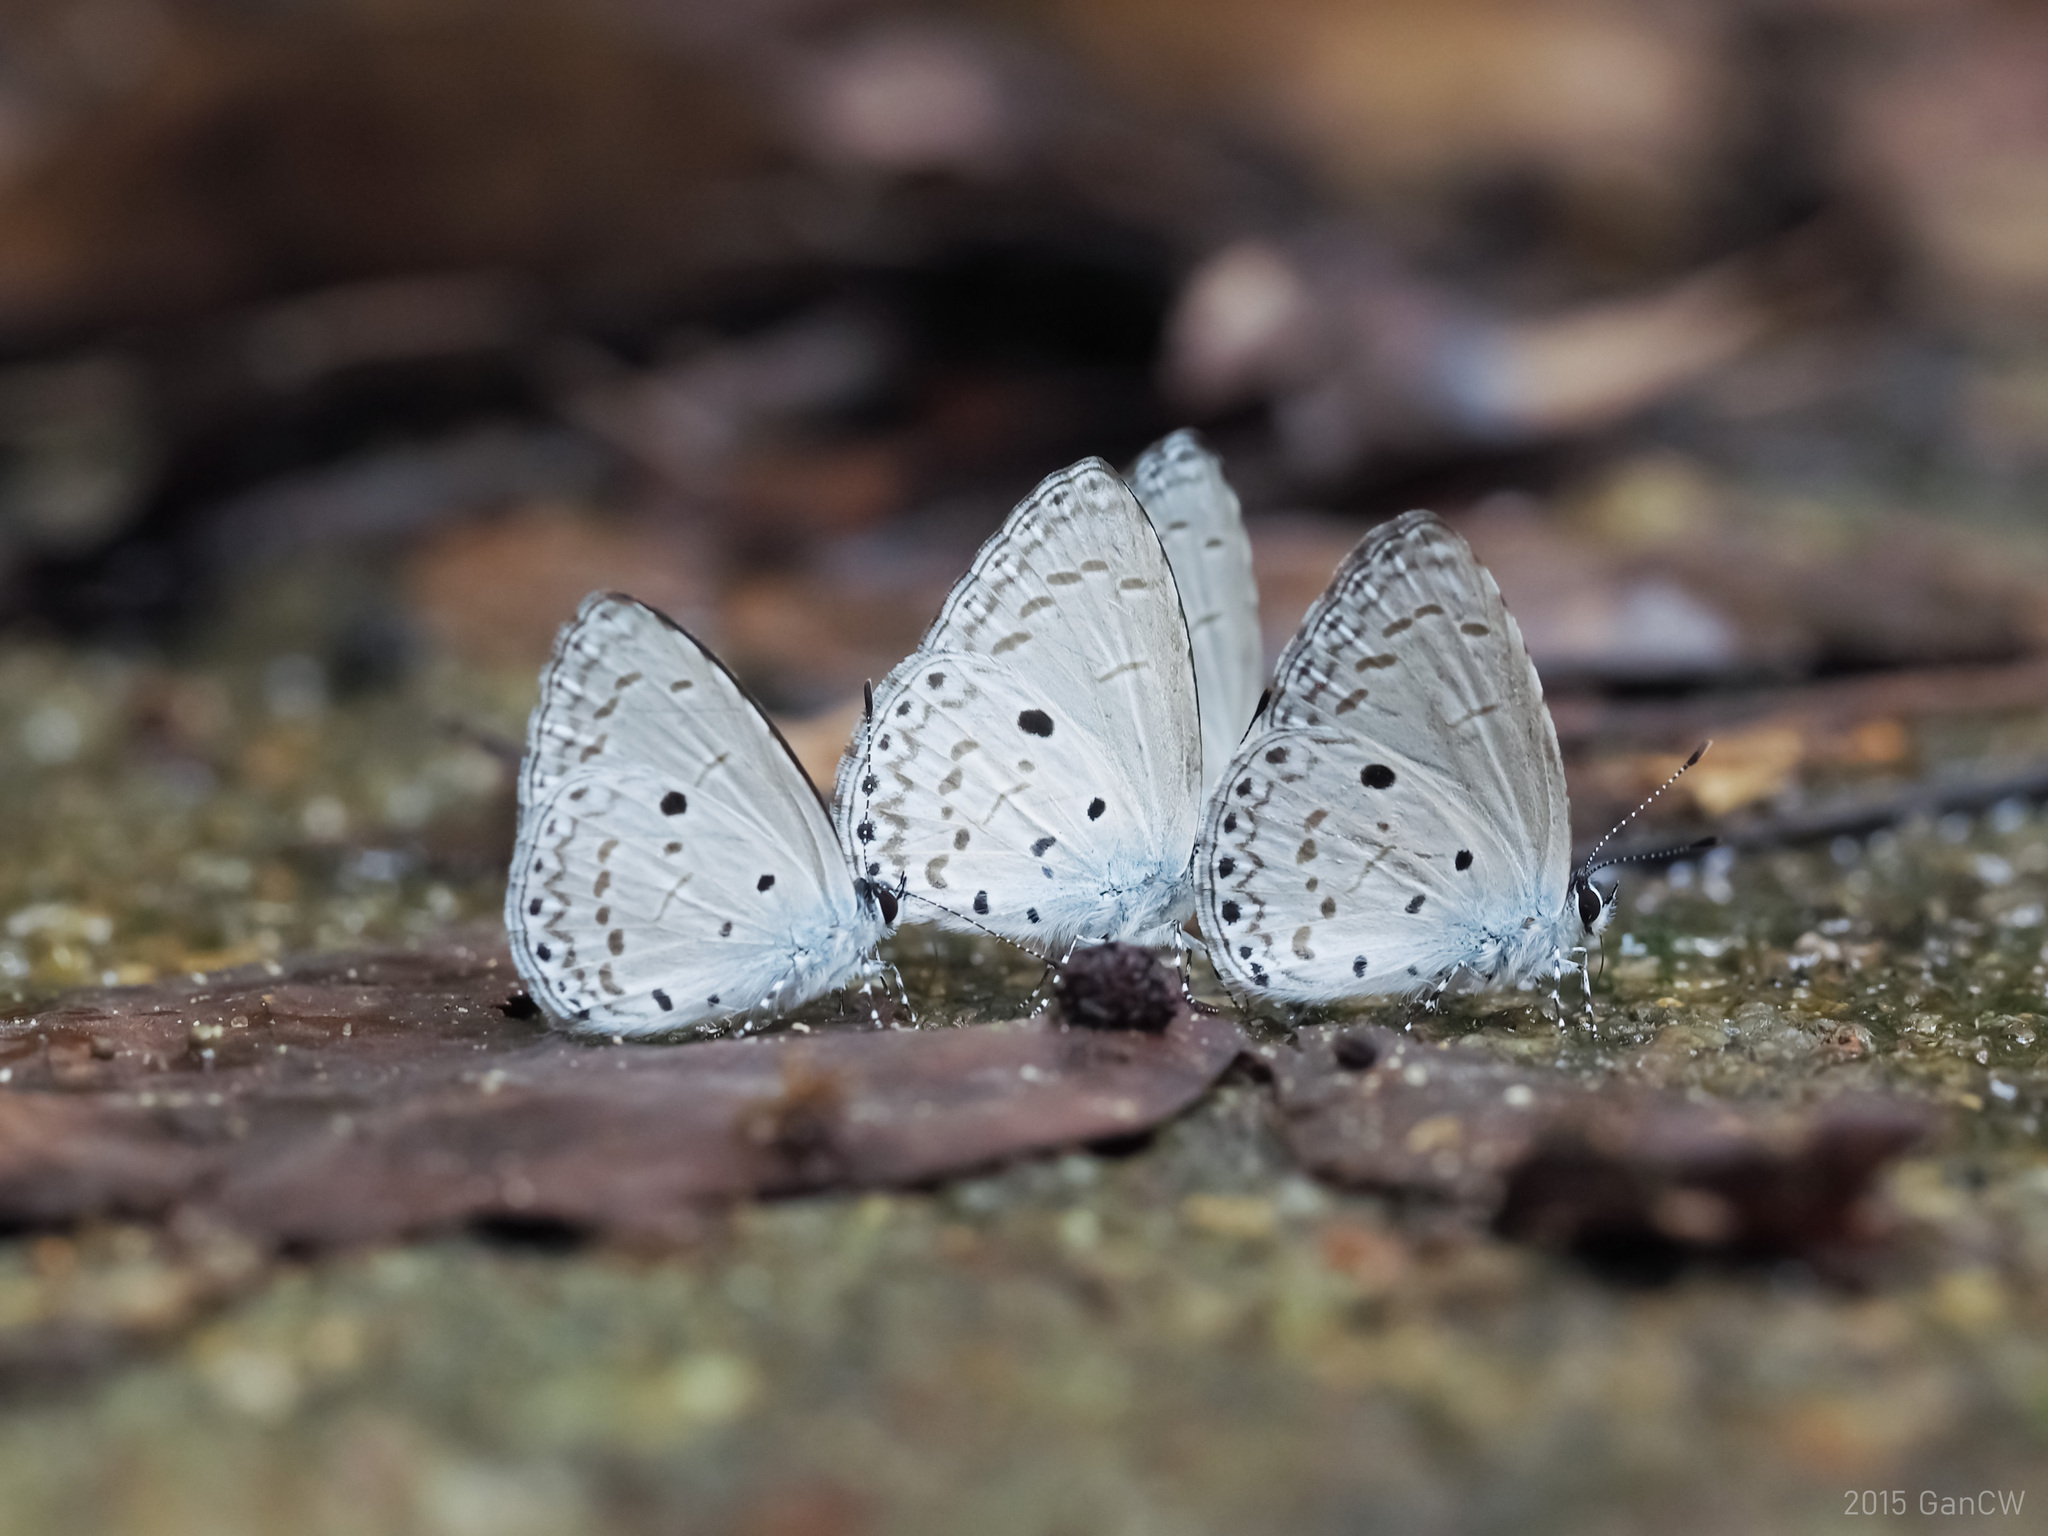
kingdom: Animalia
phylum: Arthropoda
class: Insecta
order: Lepidoptera
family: Lycaenidae
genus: Udara
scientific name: Udara
